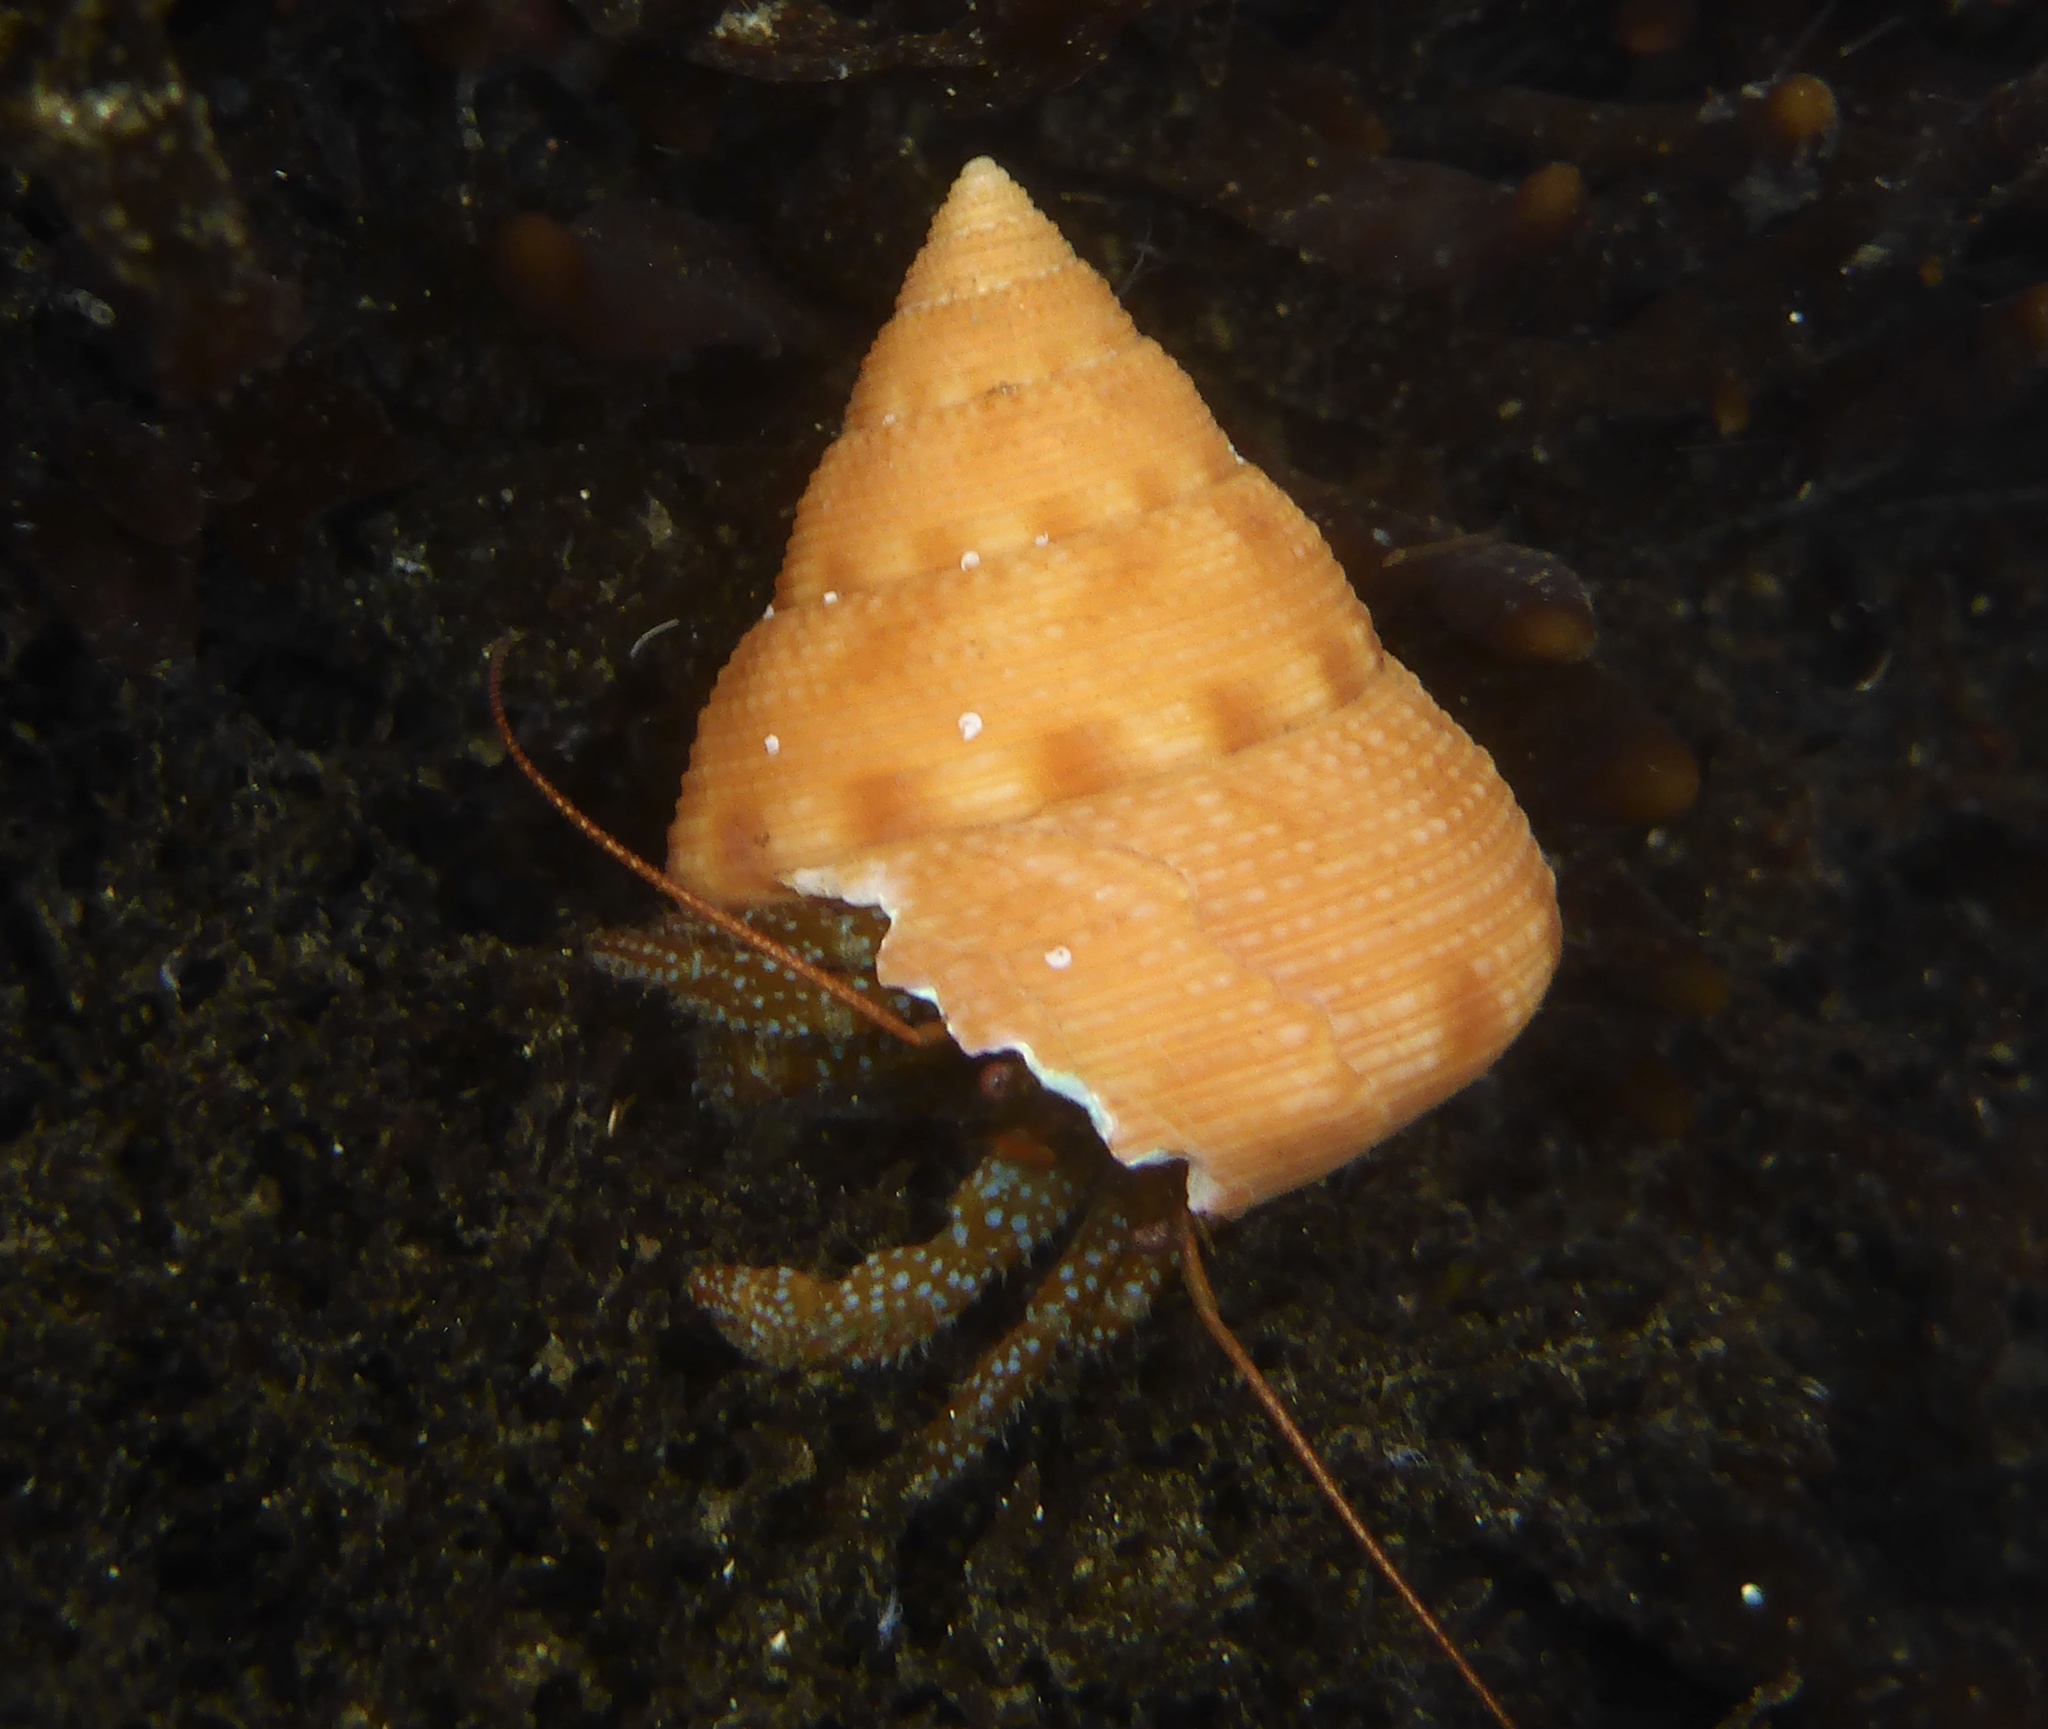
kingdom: Animalia
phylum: Arthropoda
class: Malacostraca
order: Decapoda
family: Paguridae
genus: Pagurus
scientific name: Pagurus granosimanus
